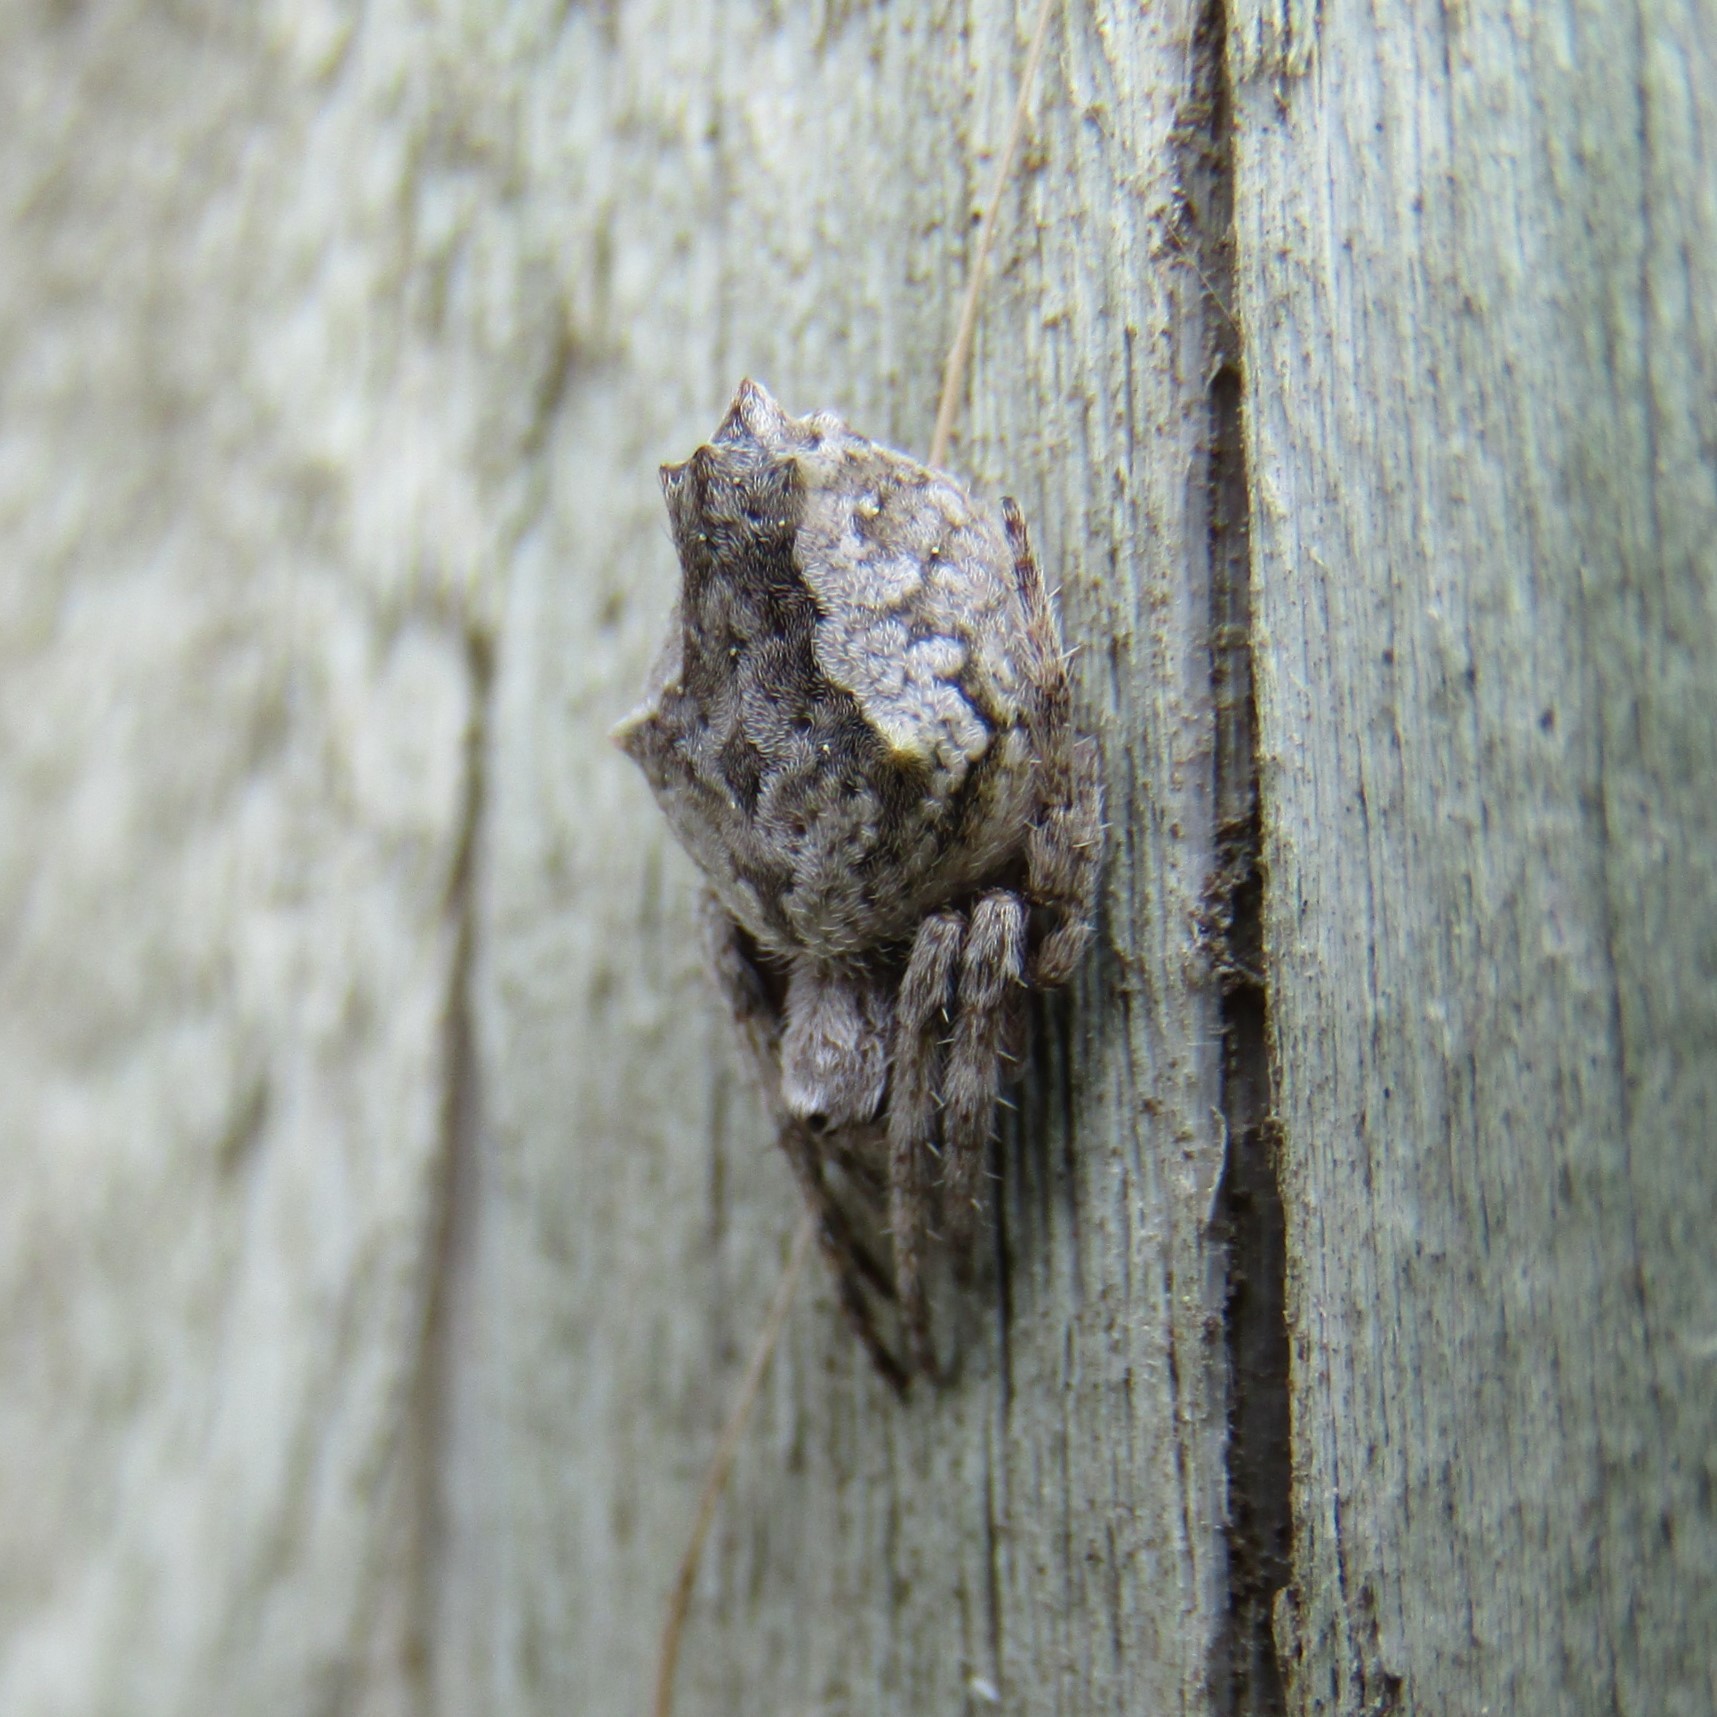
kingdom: Animalia
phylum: Arthropoda
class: Arachnida
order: Araneae
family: Araneidae
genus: Eriophora
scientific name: Eriophora pustulosa
